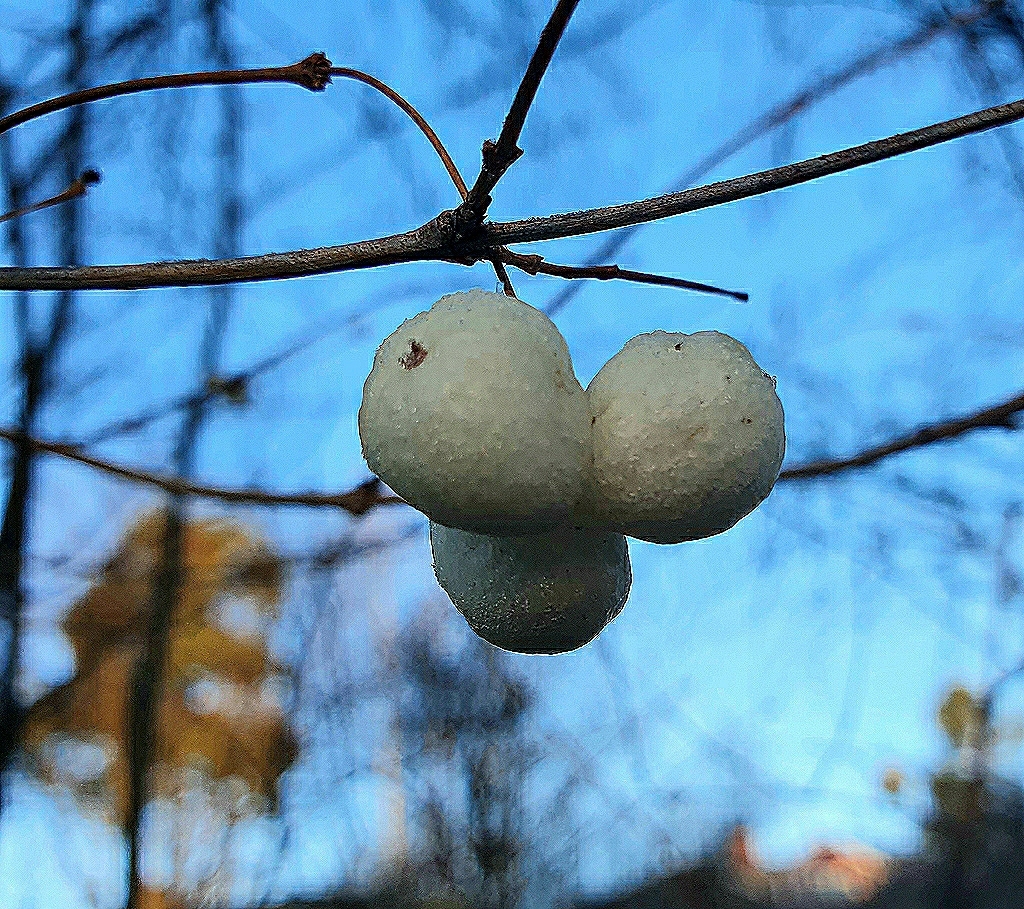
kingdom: Plantae
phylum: Tracheophyta
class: Magnoliopsida
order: Dipsacales
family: Caprifoliaceae
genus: Symphoricarpos
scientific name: Symphoricarpos albus
